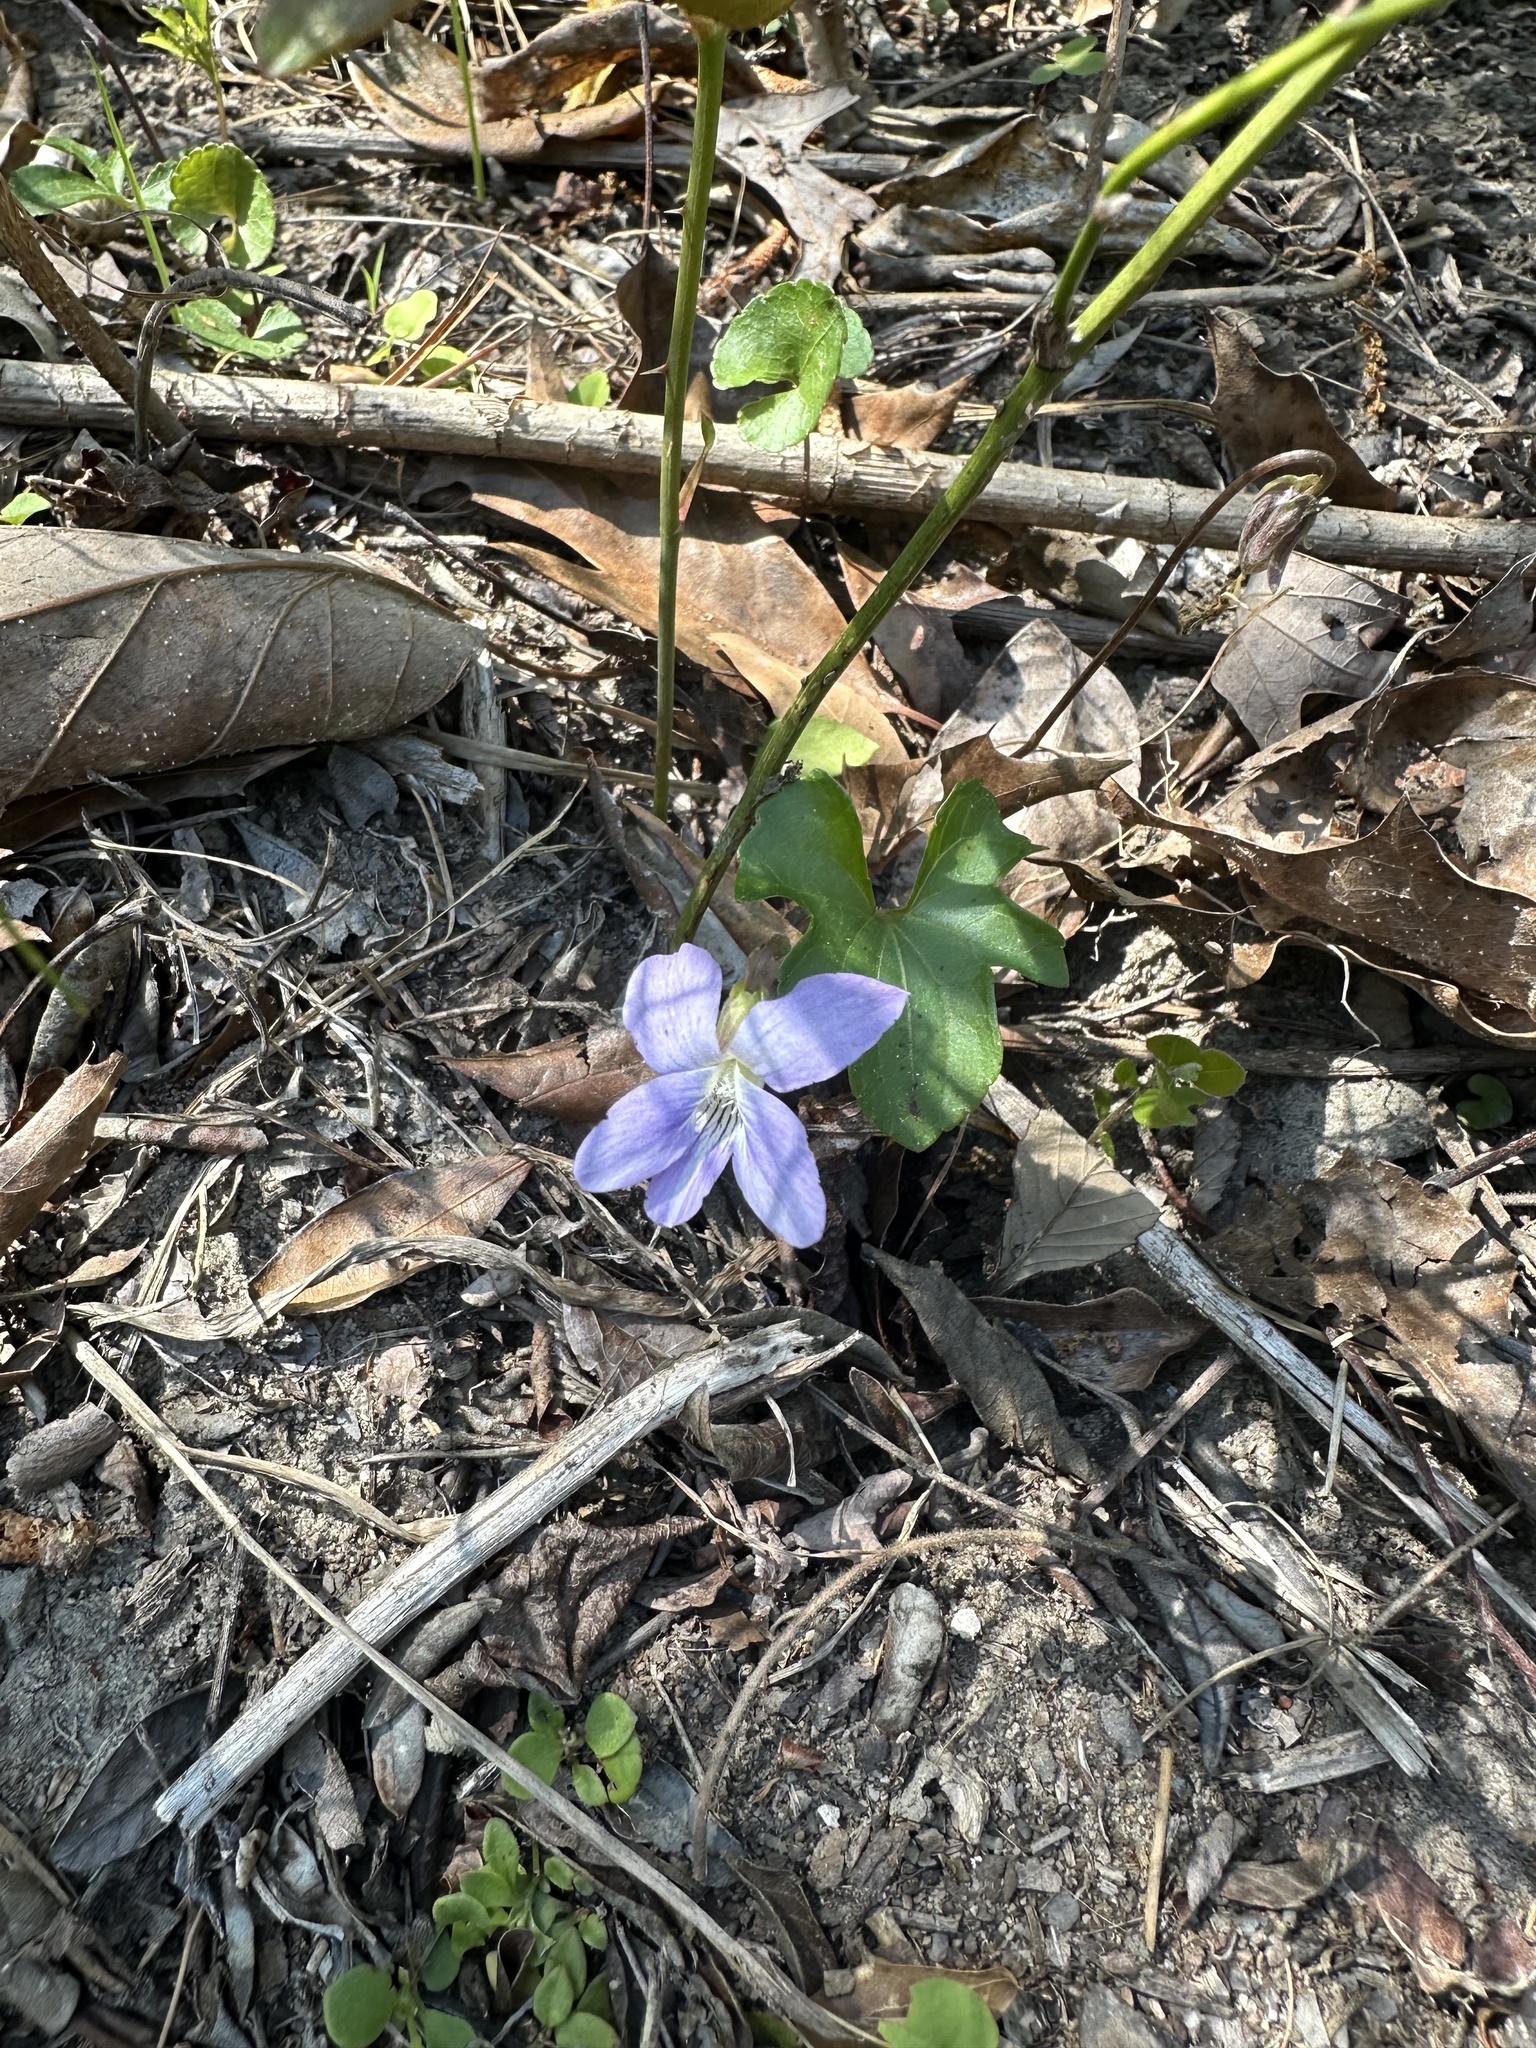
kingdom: Plantae
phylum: Tracheophyta
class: Magnoliopsida
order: Malpighiales
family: Violaceae
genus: Viola
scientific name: Viola palmata
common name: Early blue violet
